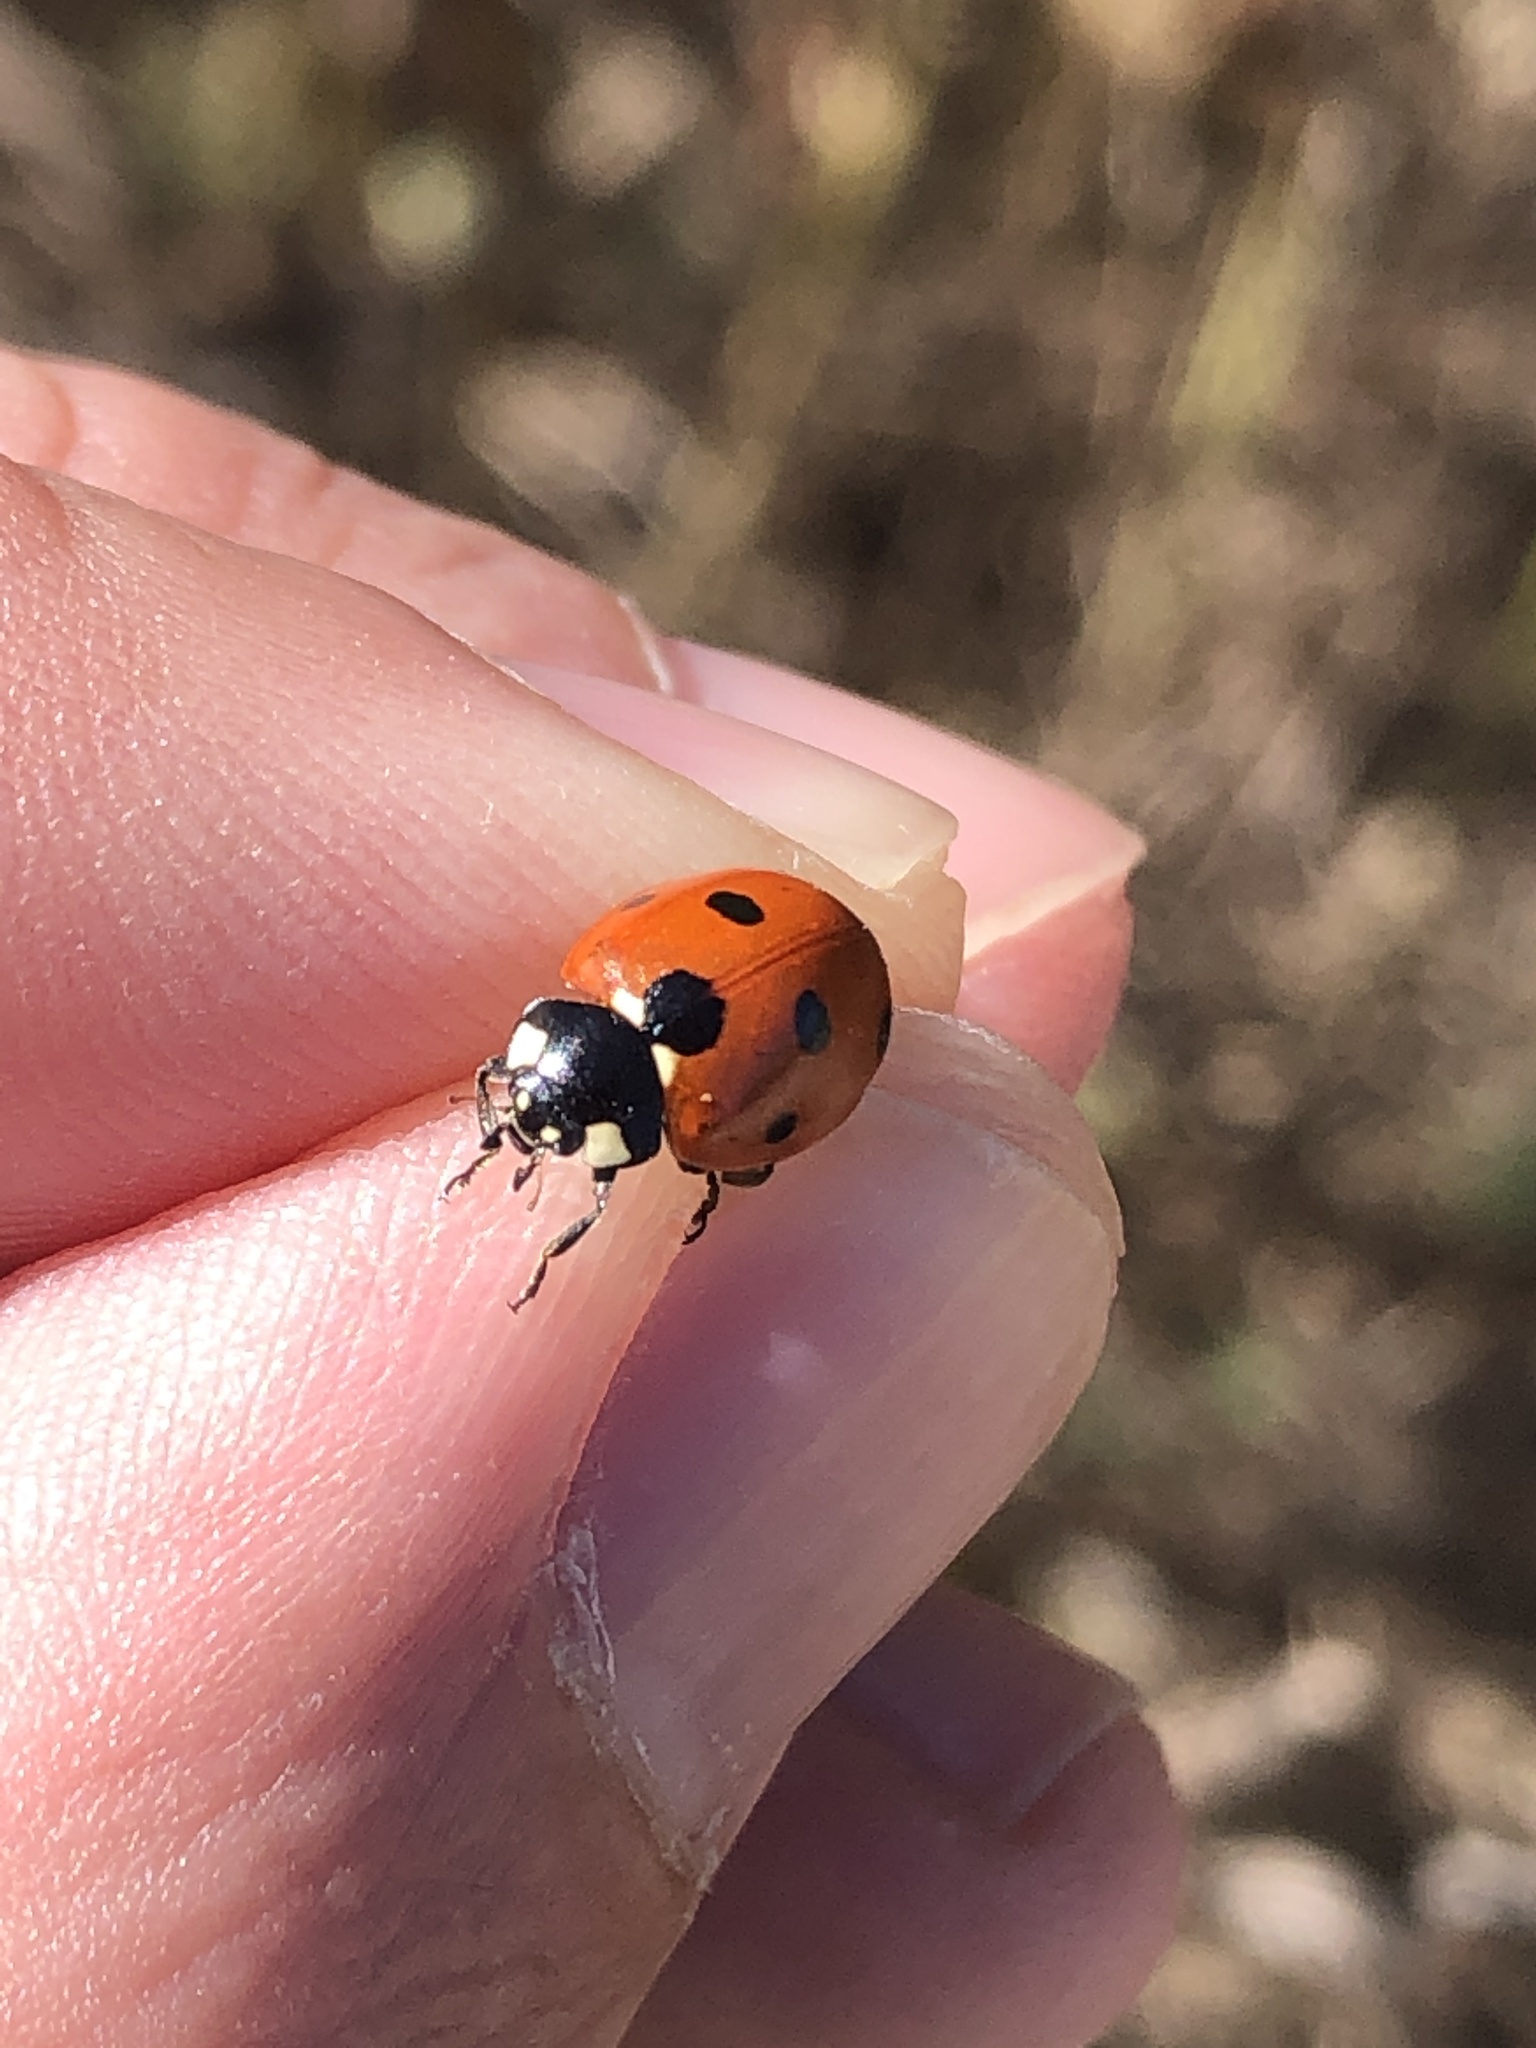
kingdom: Animalia
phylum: Arthropoda
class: Insecta
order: Coleoptera
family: Coccinellidae
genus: Coccinella
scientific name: Coccinella septempunctata
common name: Sevenspotted lady beetle
